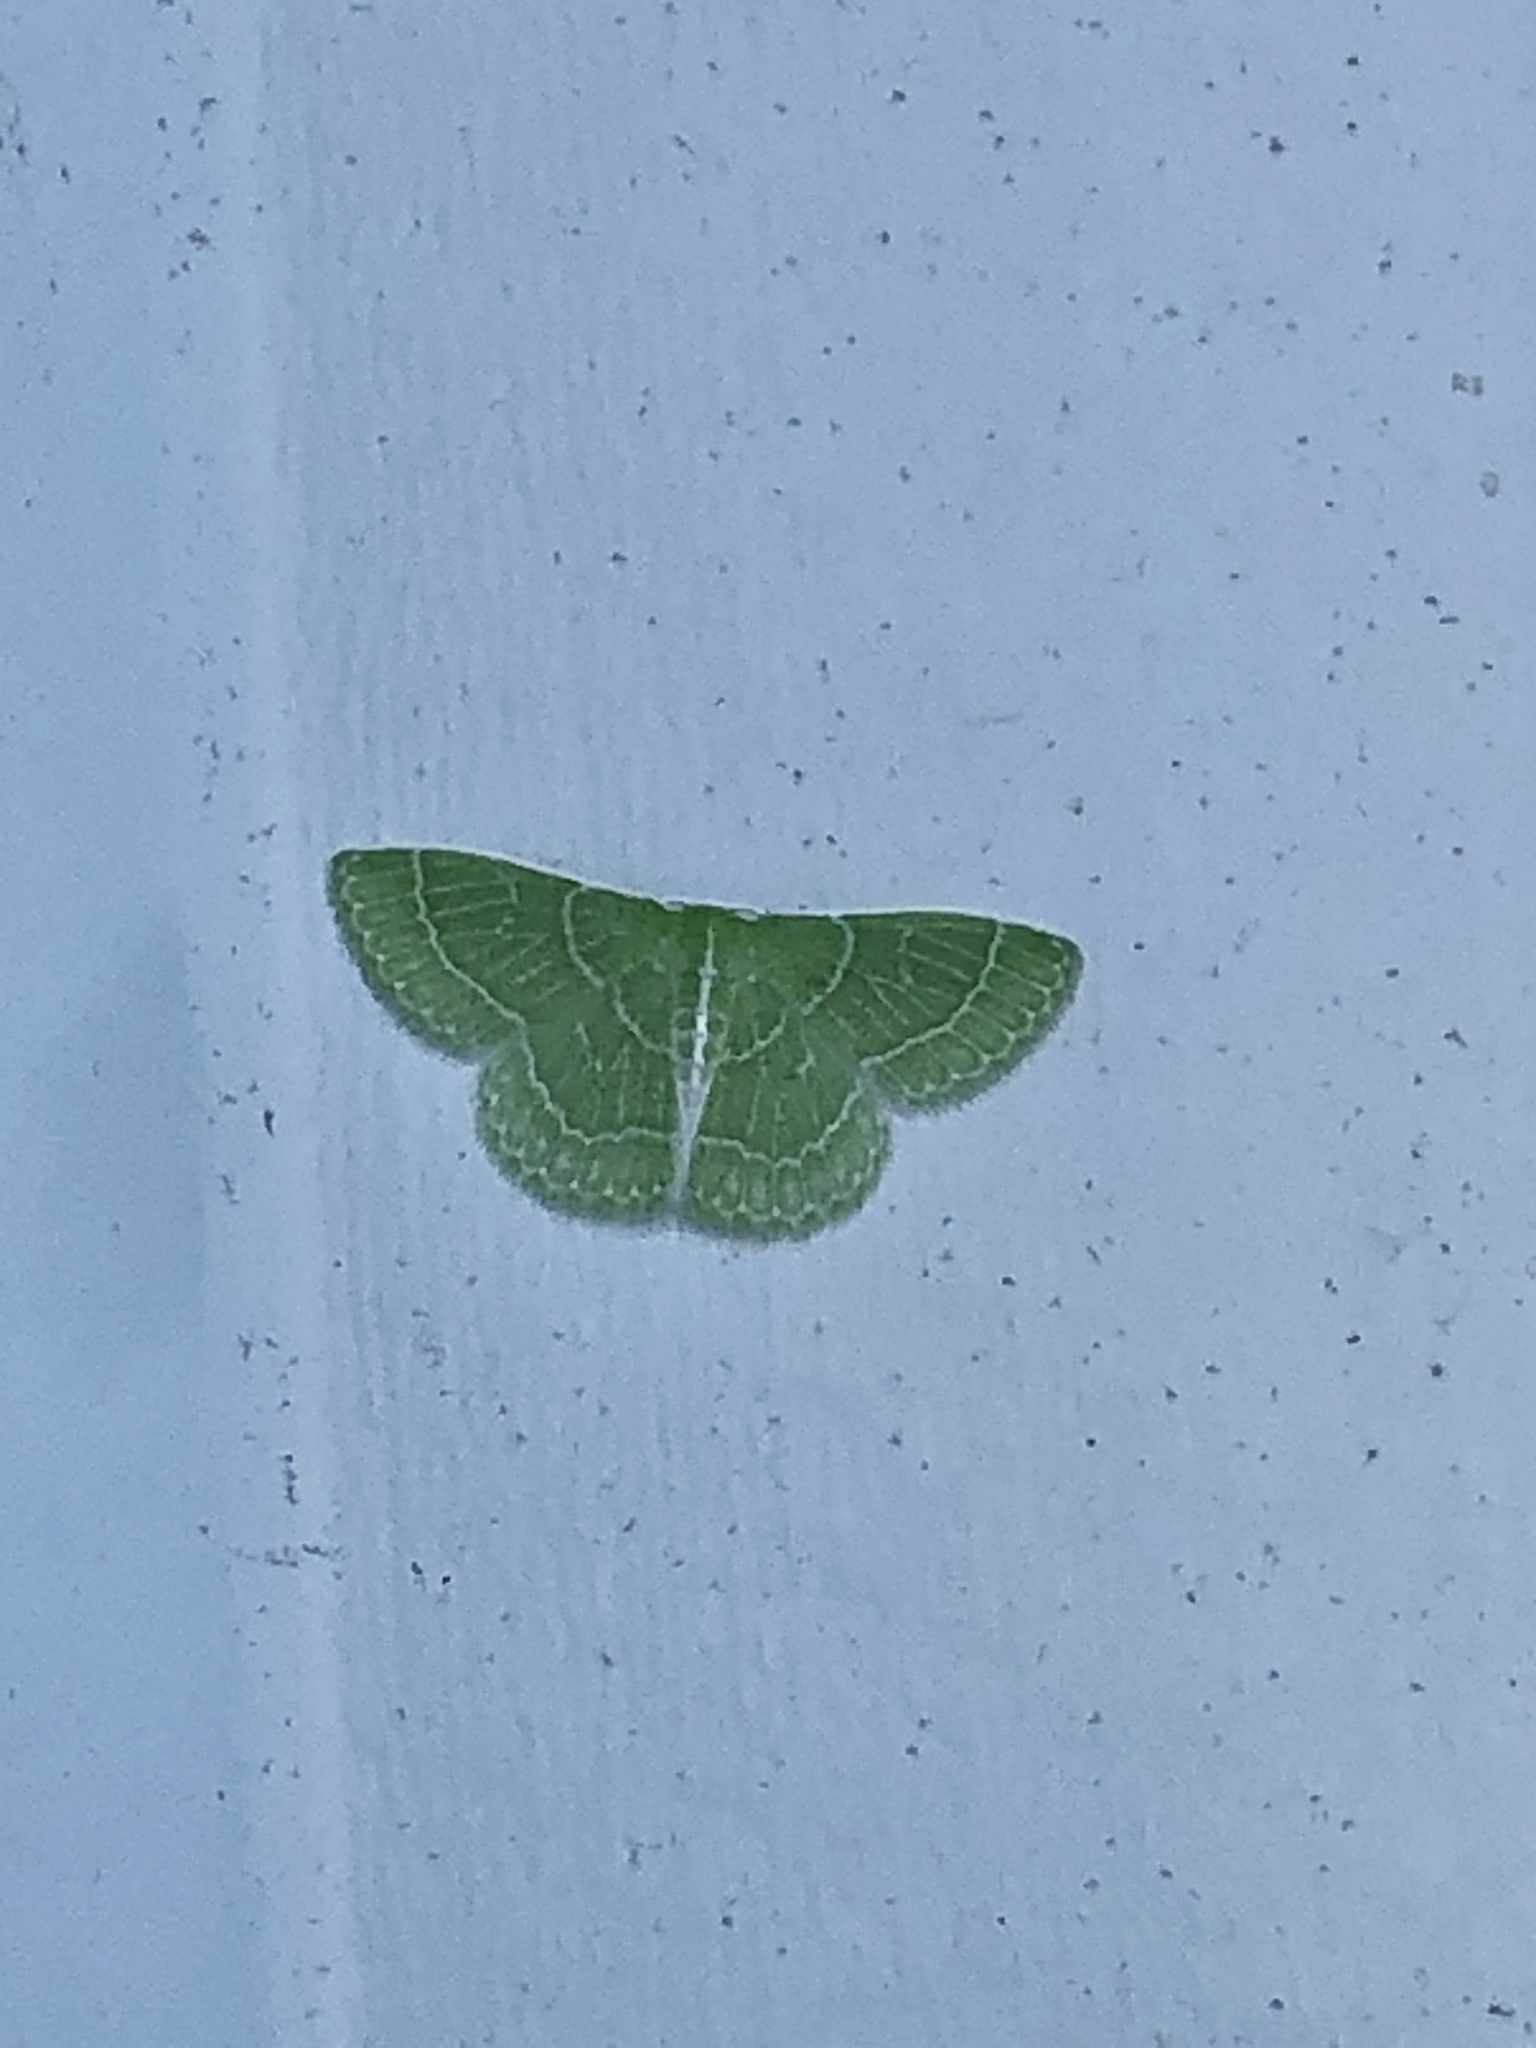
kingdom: Animalia
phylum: Arthropoda
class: Insecta
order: Lepidoptera
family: Geometridae
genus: Synchlora
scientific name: Synchlora aerata
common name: Wavy-lined emerald
